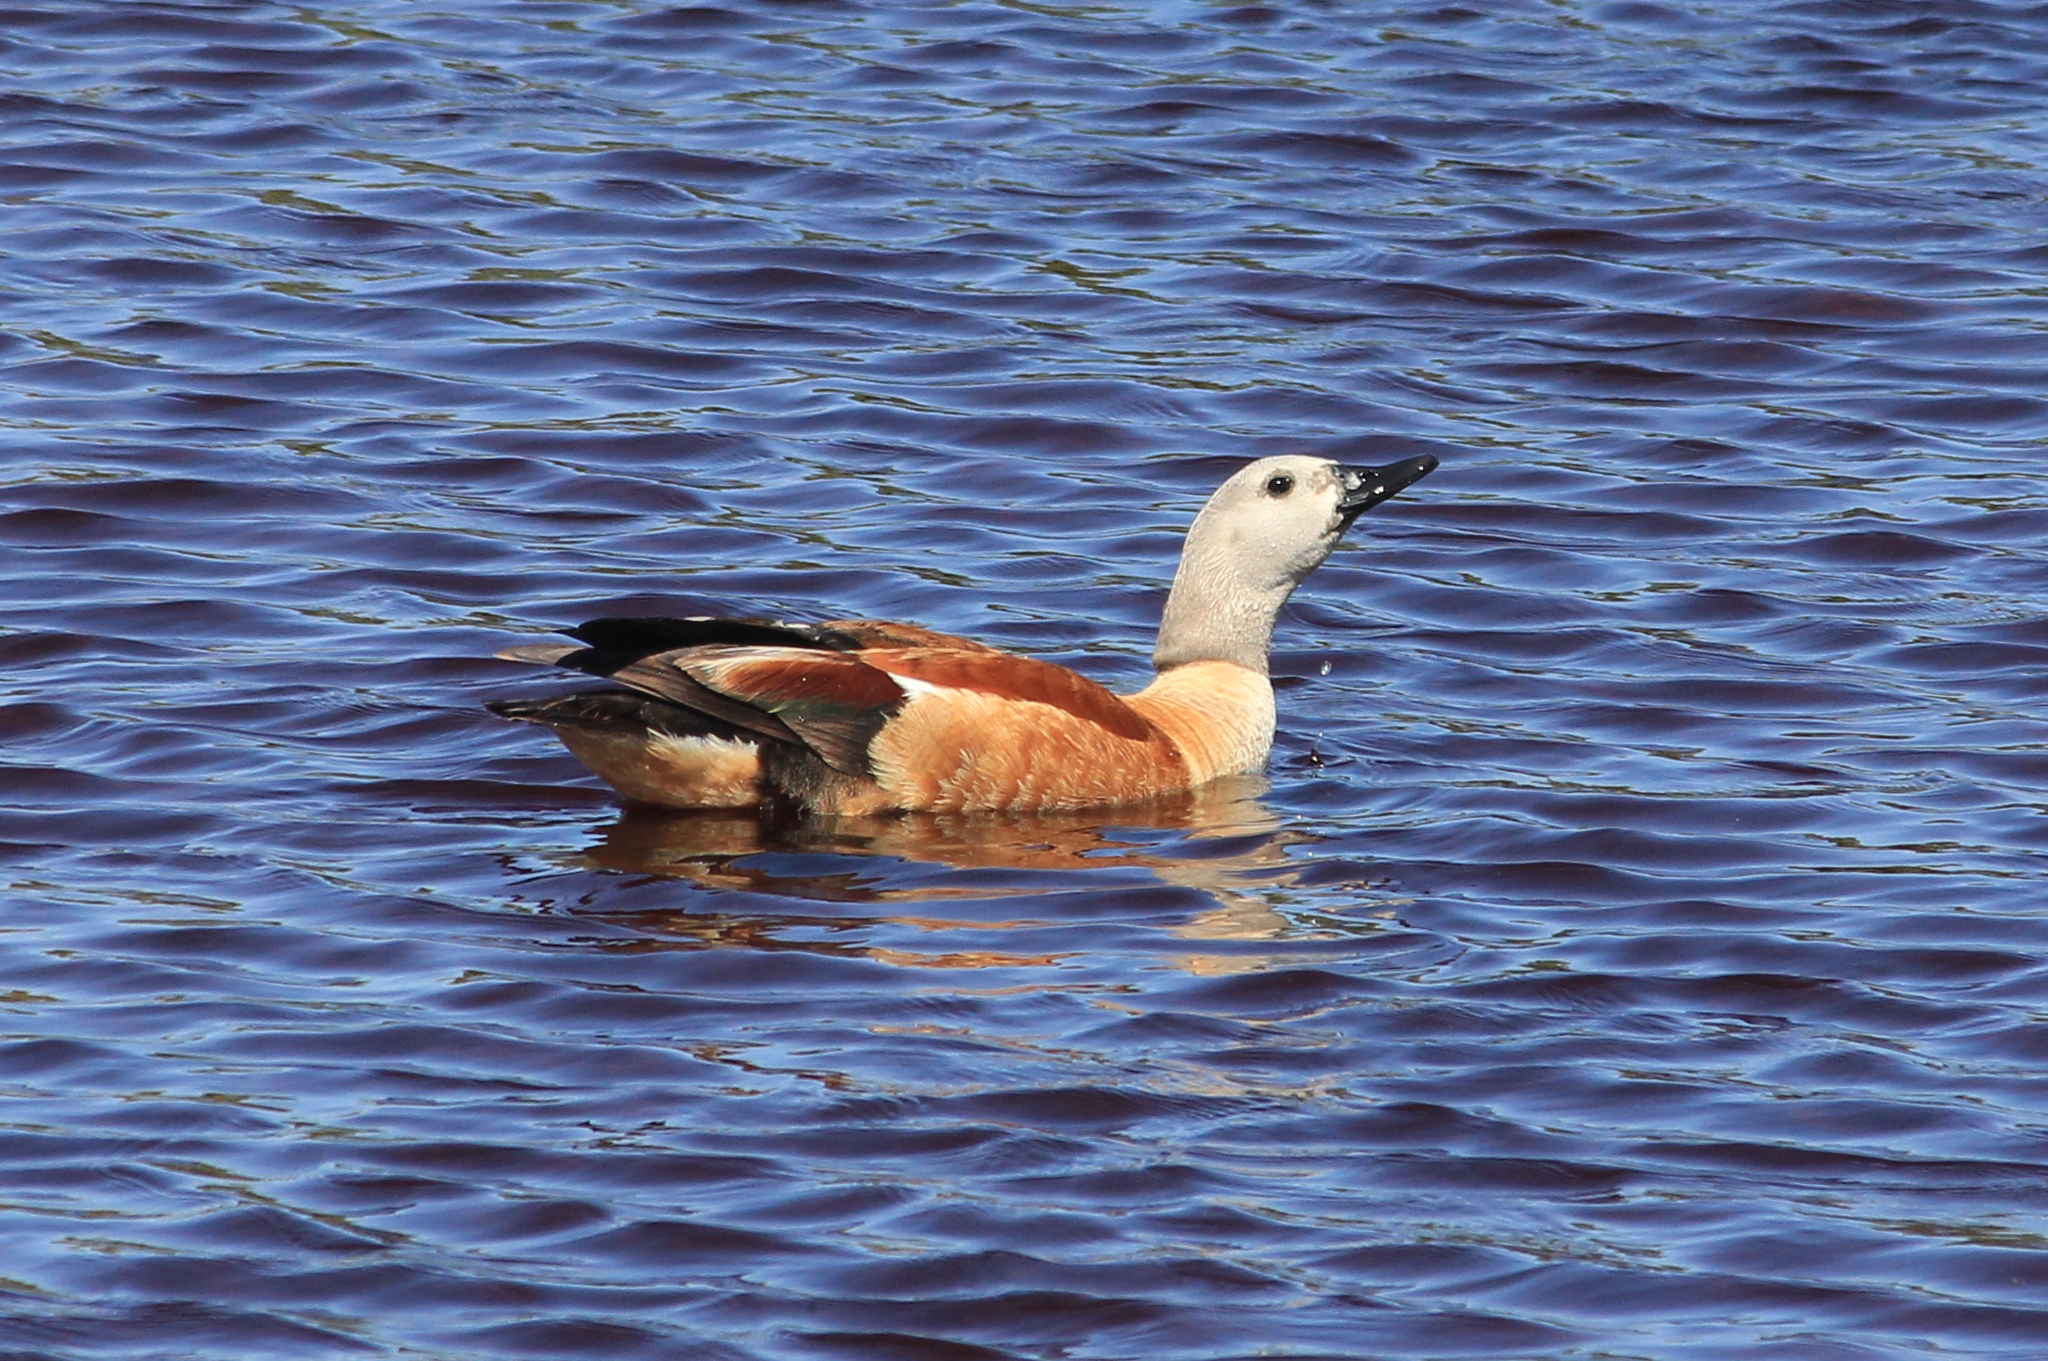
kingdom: Animalia
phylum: Chordata
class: Aves
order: Anseriformes
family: Anatidae
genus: Tadorna
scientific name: Tadorna cana
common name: South african shelduck
